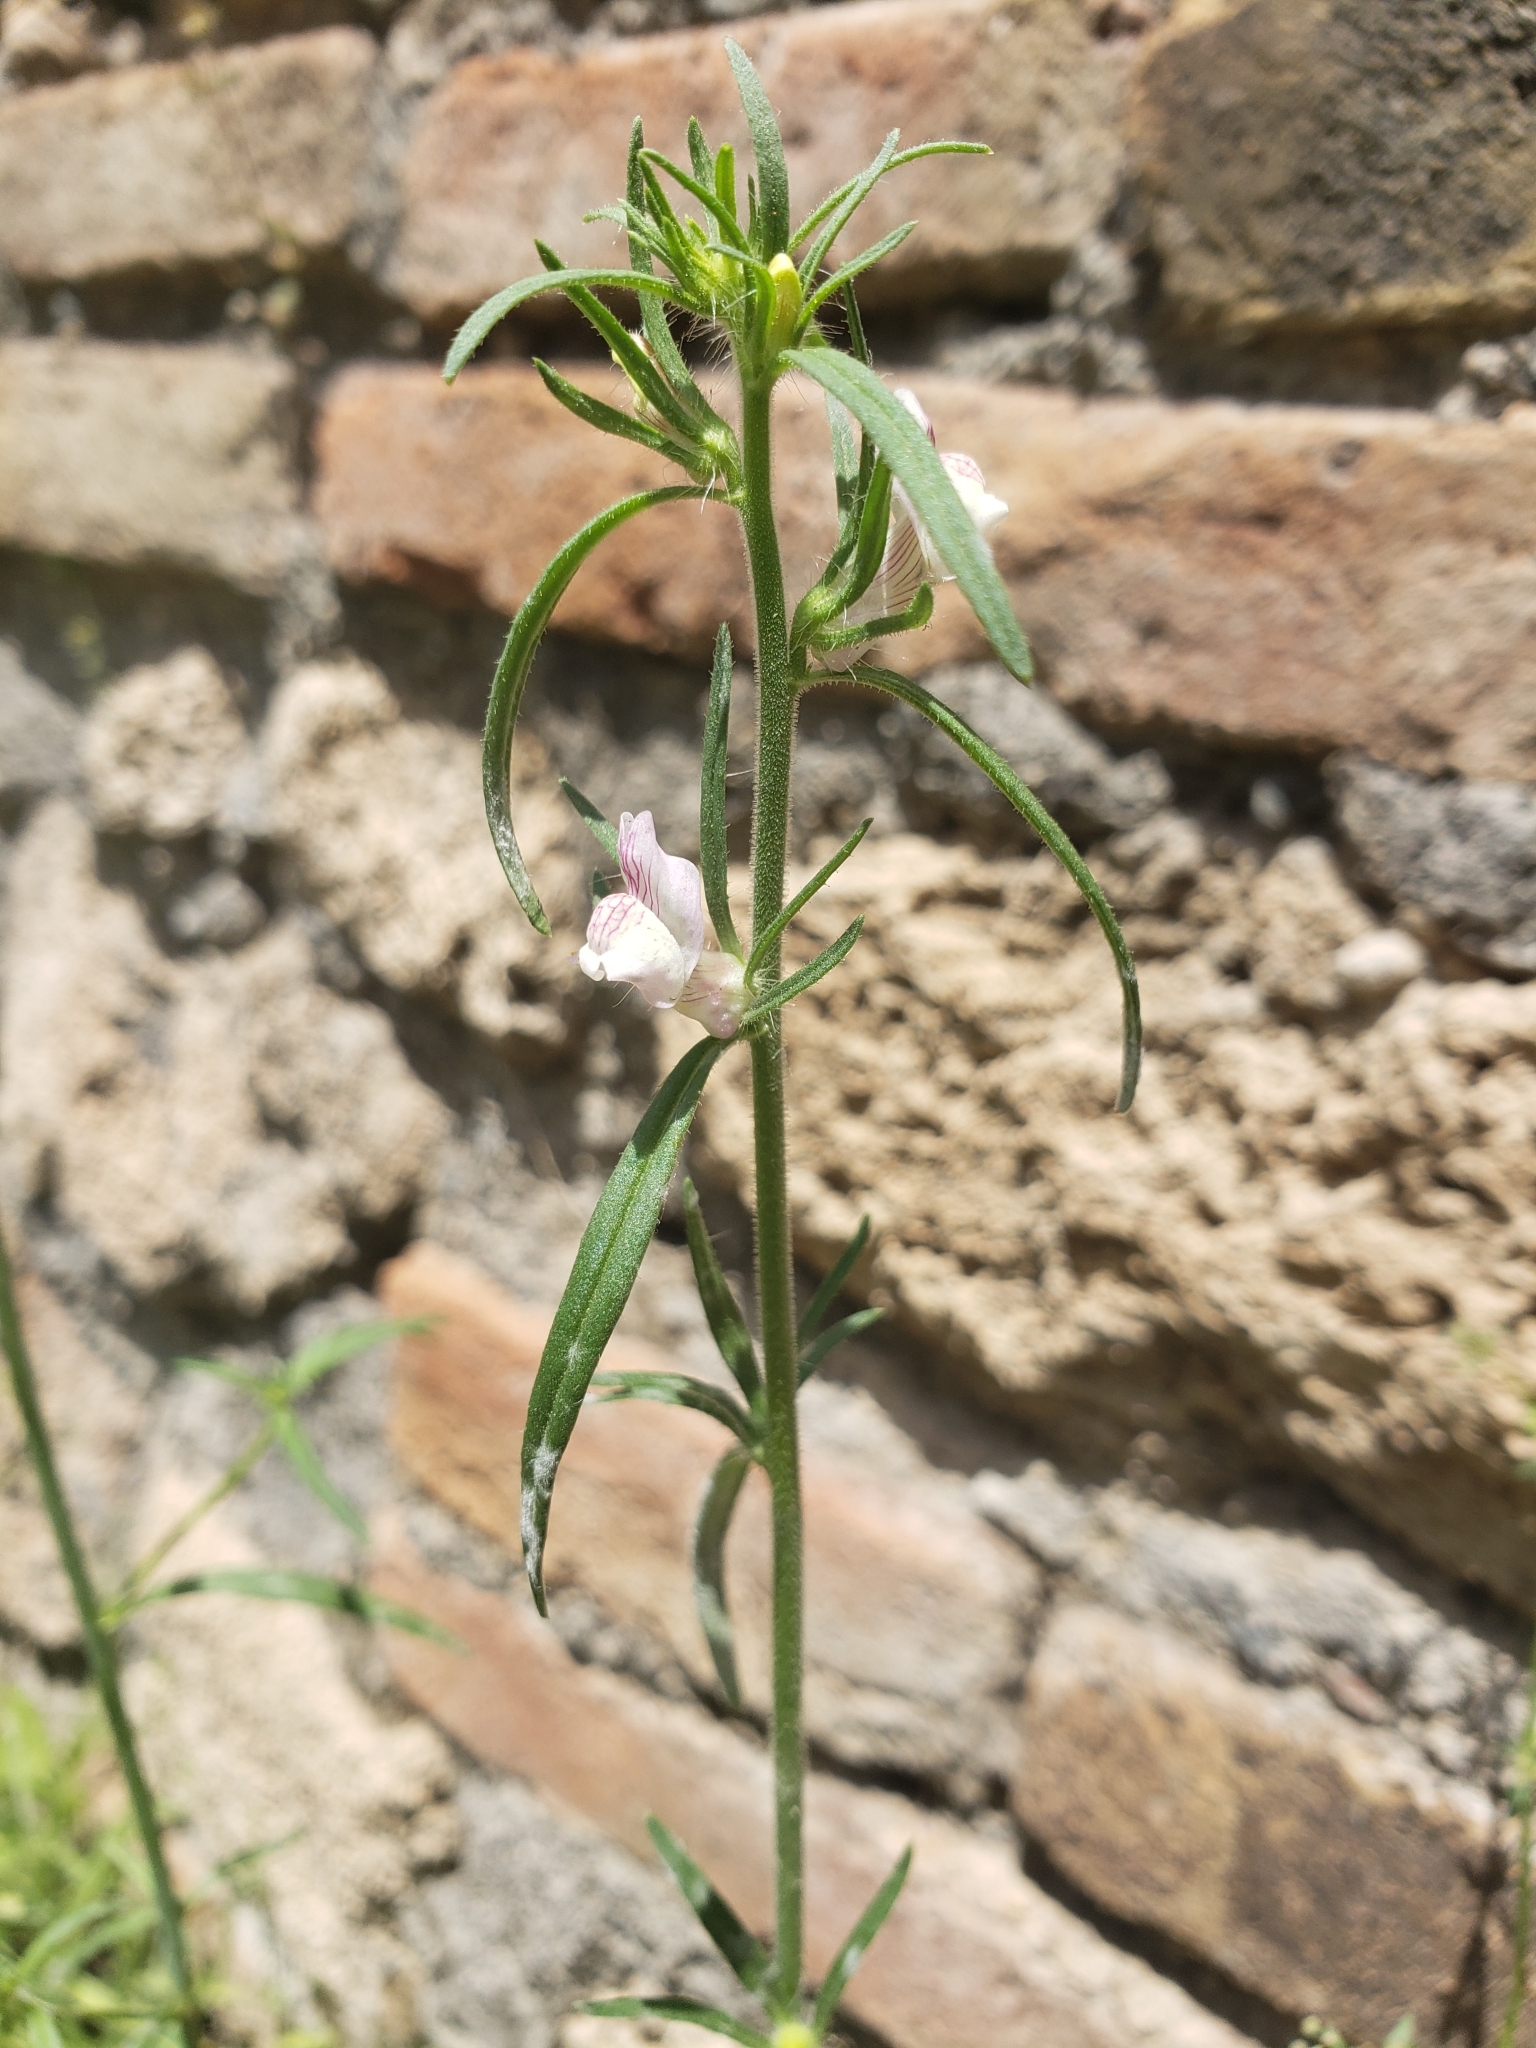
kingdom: Plantae
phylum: Tracheophyta
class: Magnoliopsida
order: Lamiales
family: Plantaginaceae
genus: Misopates
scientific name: Misopates orontium
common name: Weasel's-snout
